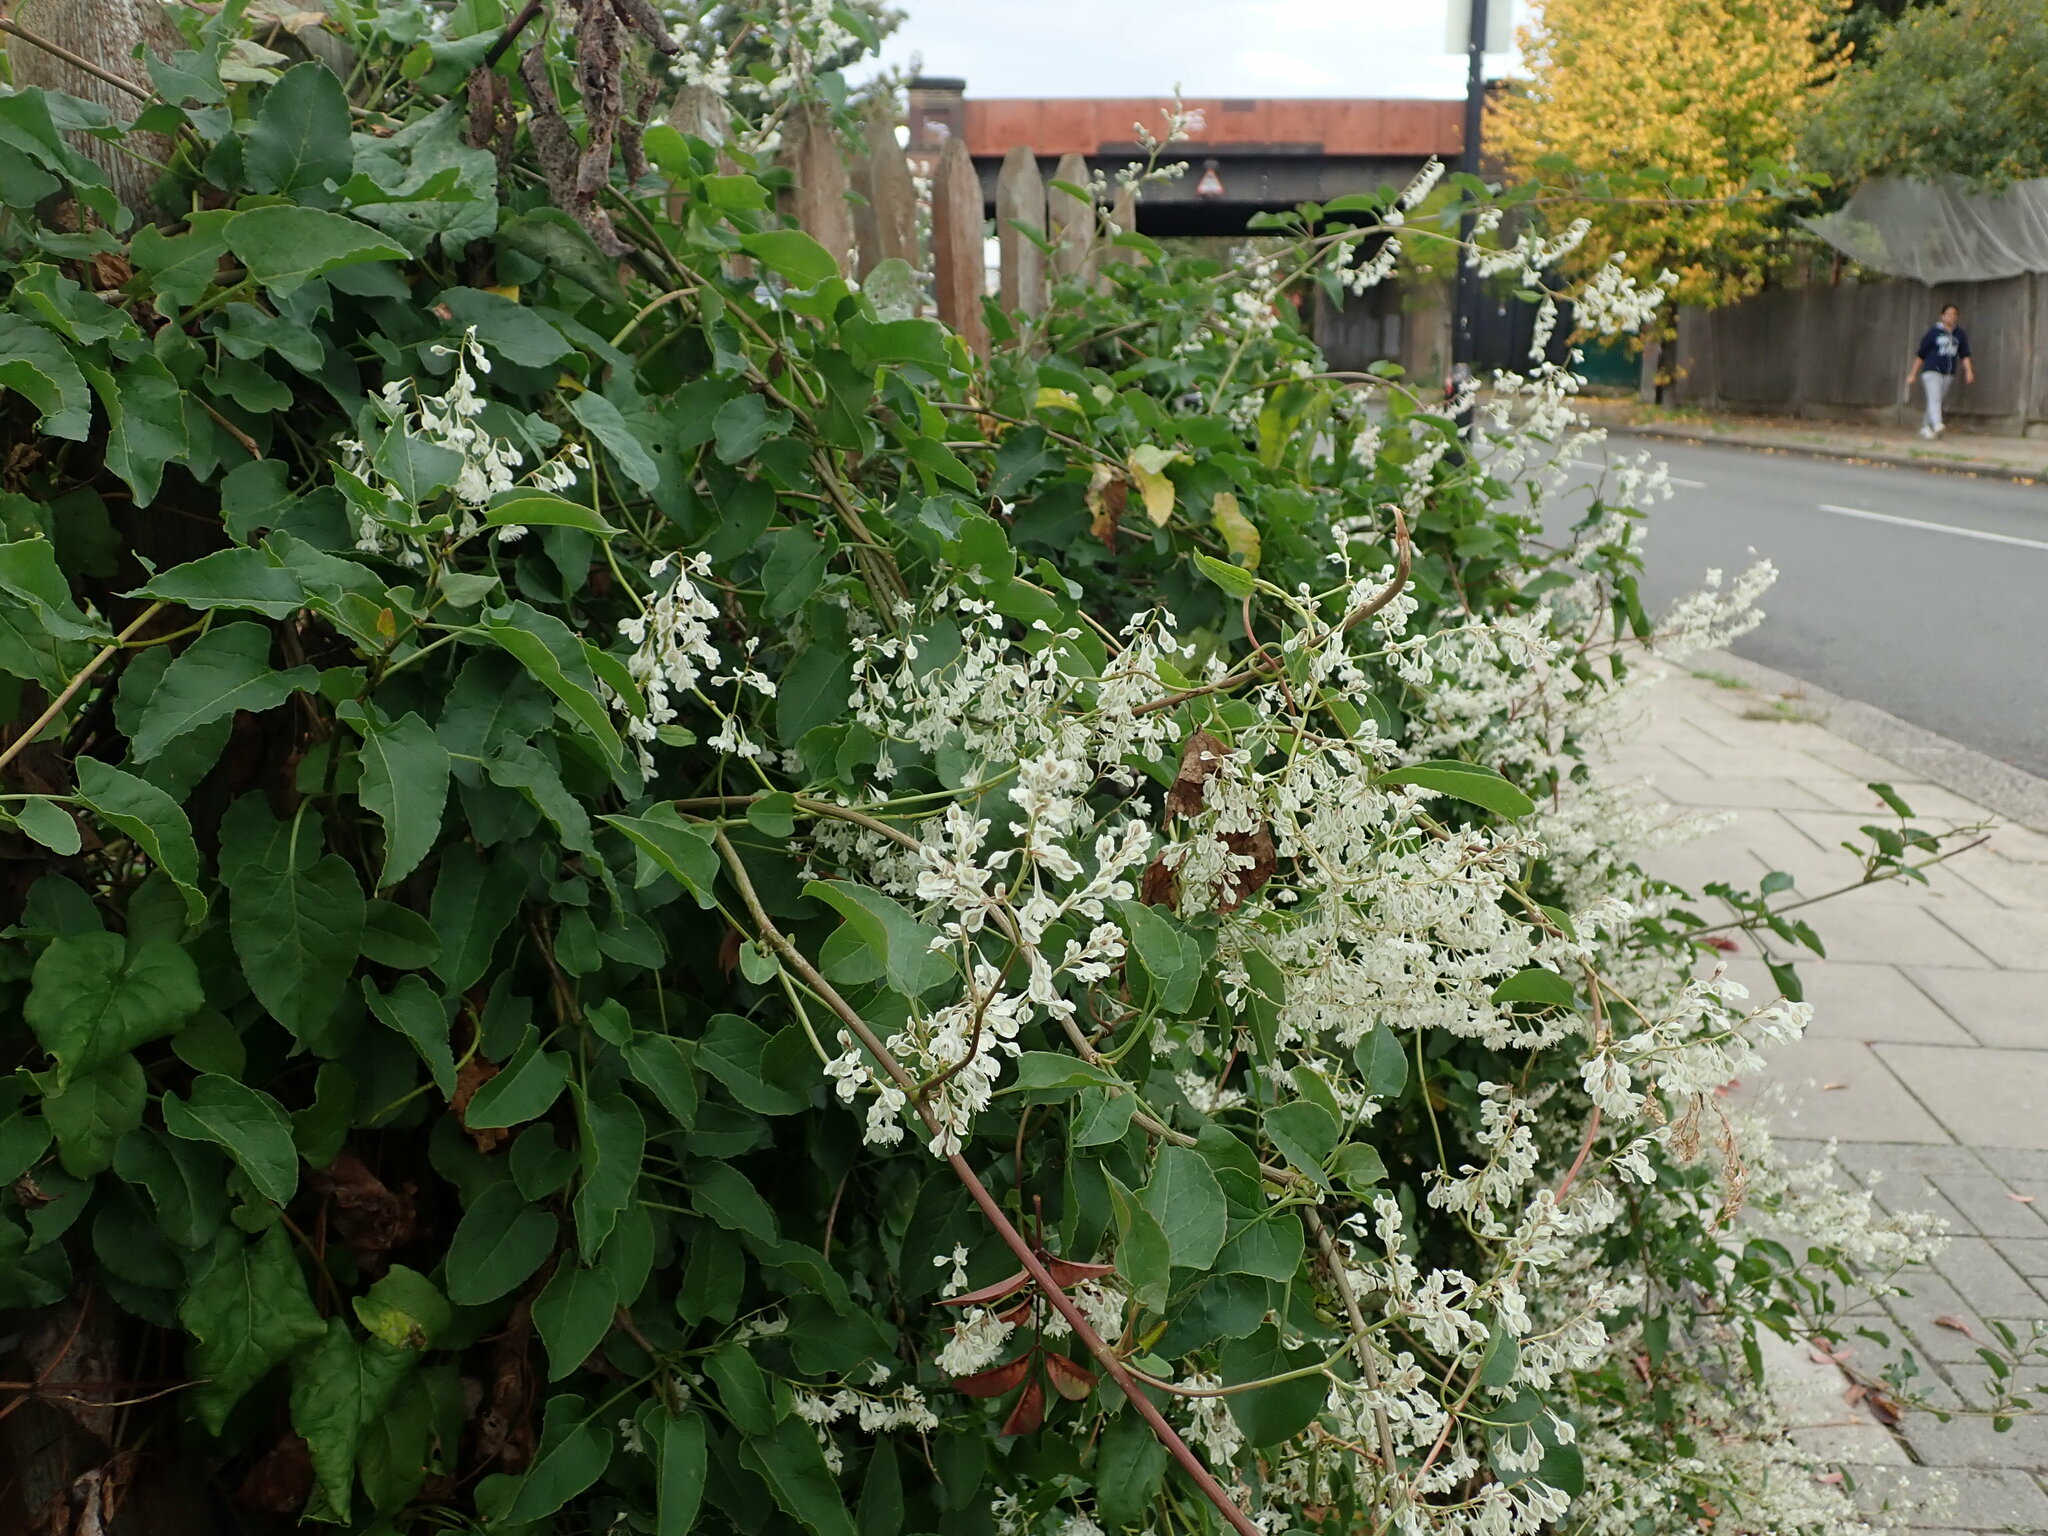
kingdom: Plantae
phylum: Tracheophyta
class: Magnoliopsida
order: Caryophyllales
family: Polygonaceae
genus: Fallopia
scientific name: Fallopia baldschuanica
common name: Russian-vine
